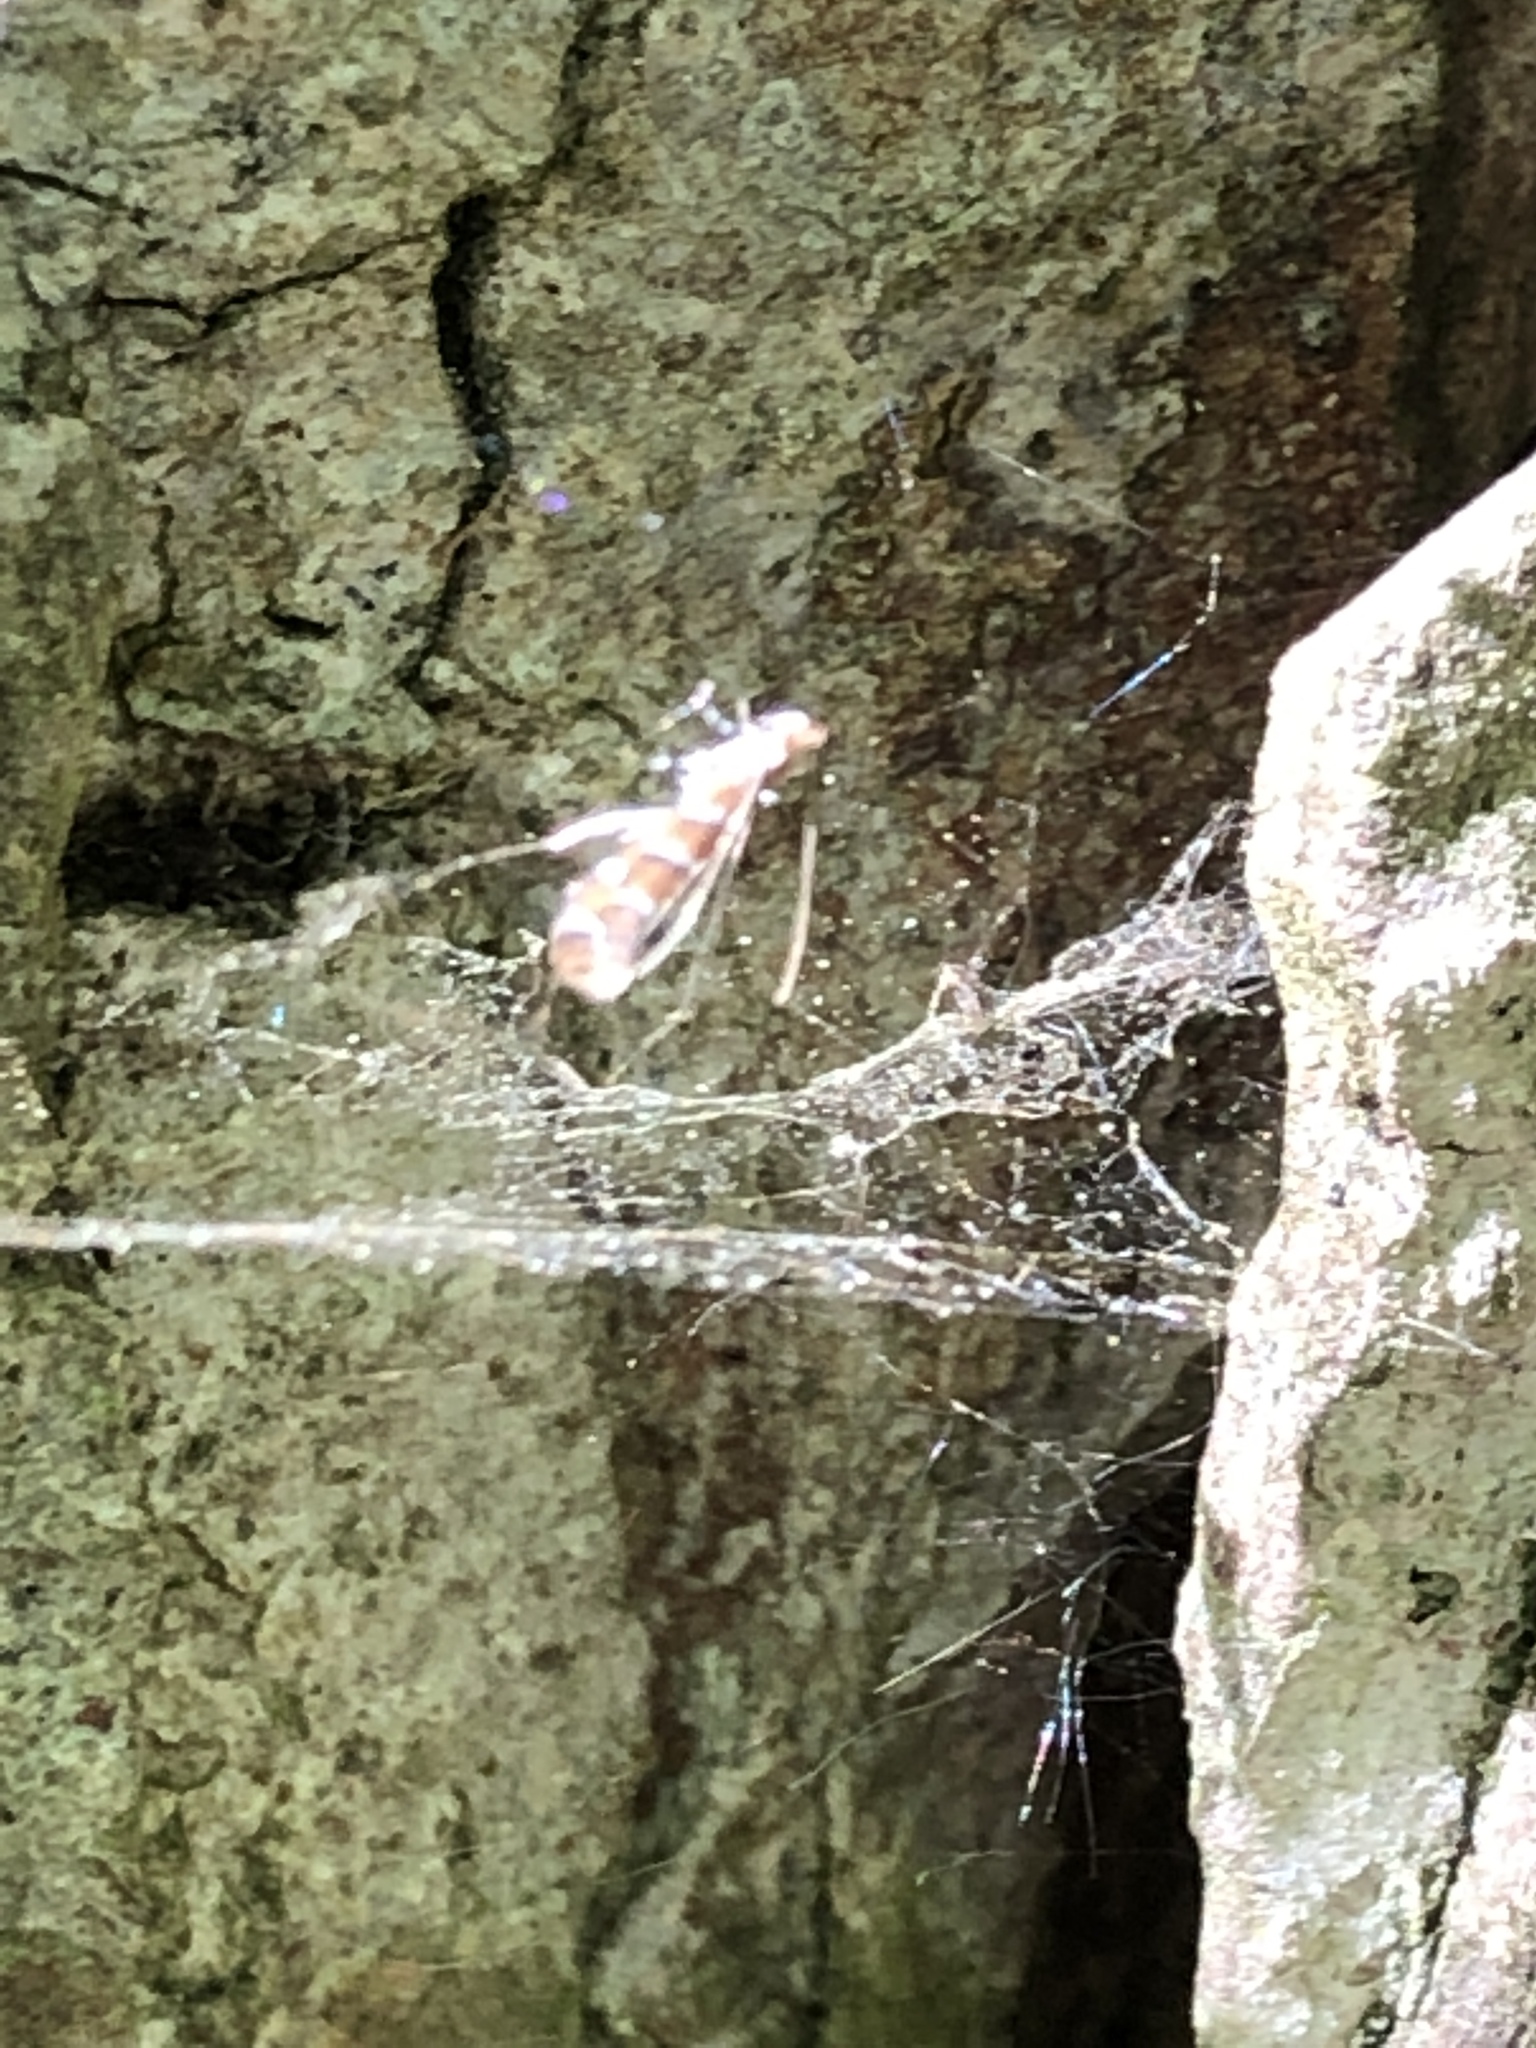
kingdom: Animalia
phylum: Arthropoda
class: Insecta
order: Lepidoptera
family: Gracillariidae
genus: Cameraria
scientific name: Cameraria ohridella
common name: Horse-chestnut leaf-miner
